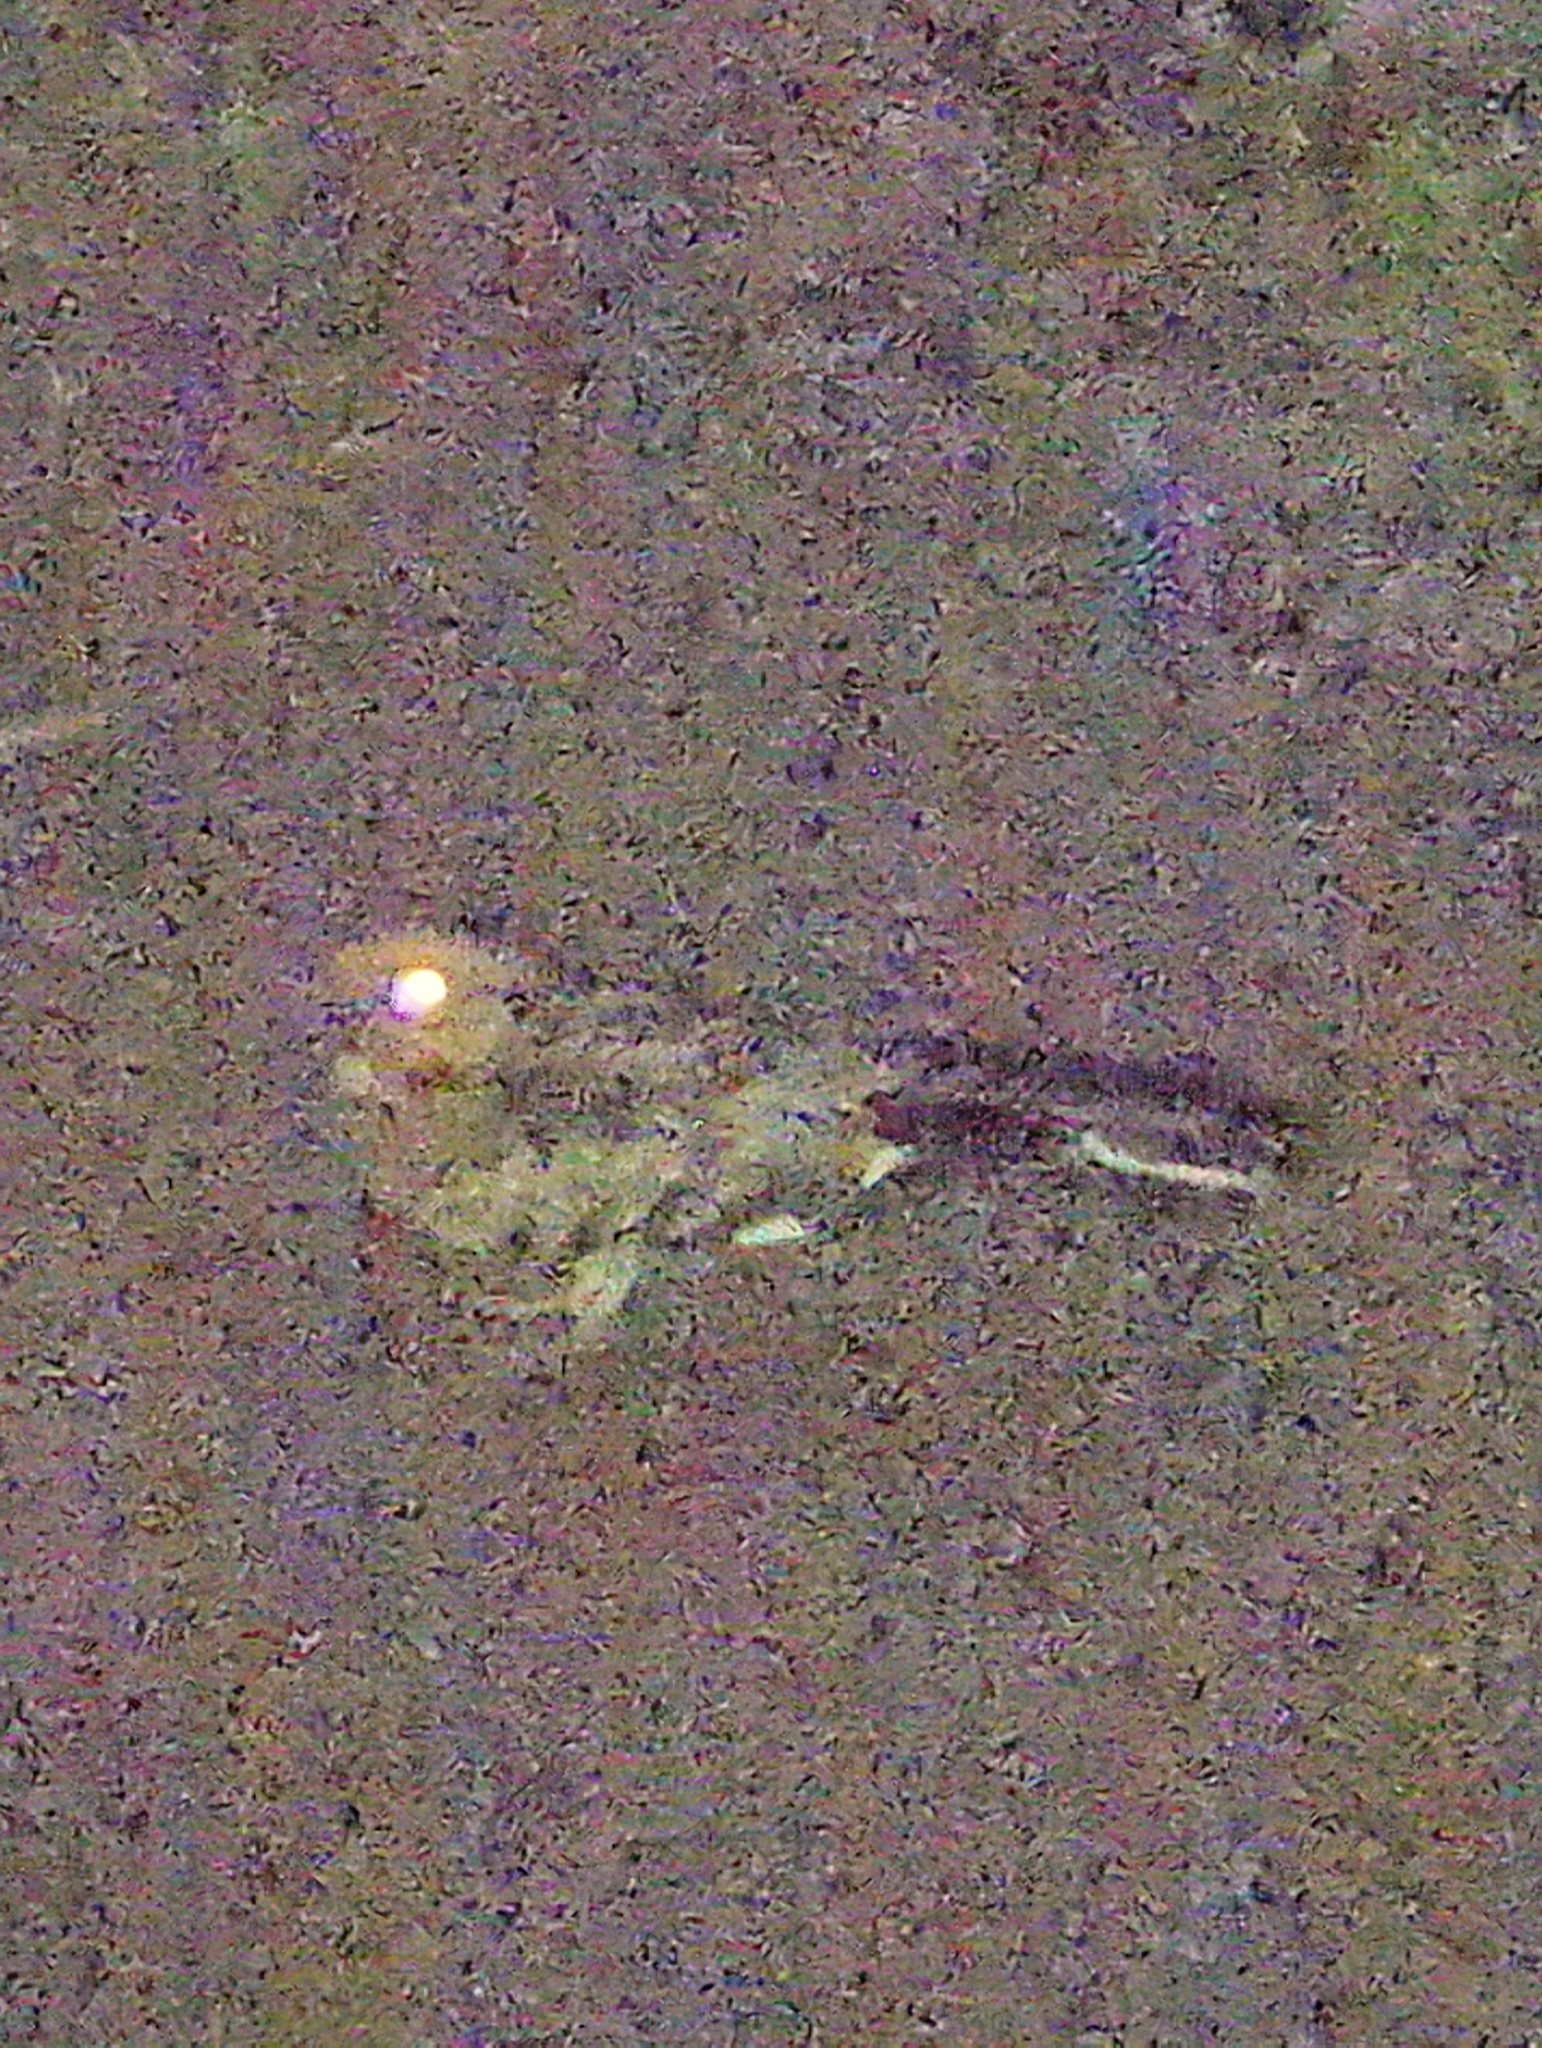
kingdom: Animalia
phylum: Chordata
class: Aves
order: Caprimulgiformes
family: Caprimulgidae
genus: Nyctidromus
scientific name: Nyctidromus albicollis
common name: Pauraque
